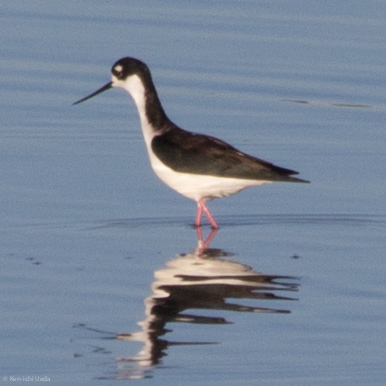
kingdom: Animalia
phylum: Chordata
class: Aves
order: Charadriiformes
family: Recurvirostridae
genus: Himantopus
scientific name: Himantopus mexicanus
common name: Black-necked stilt
